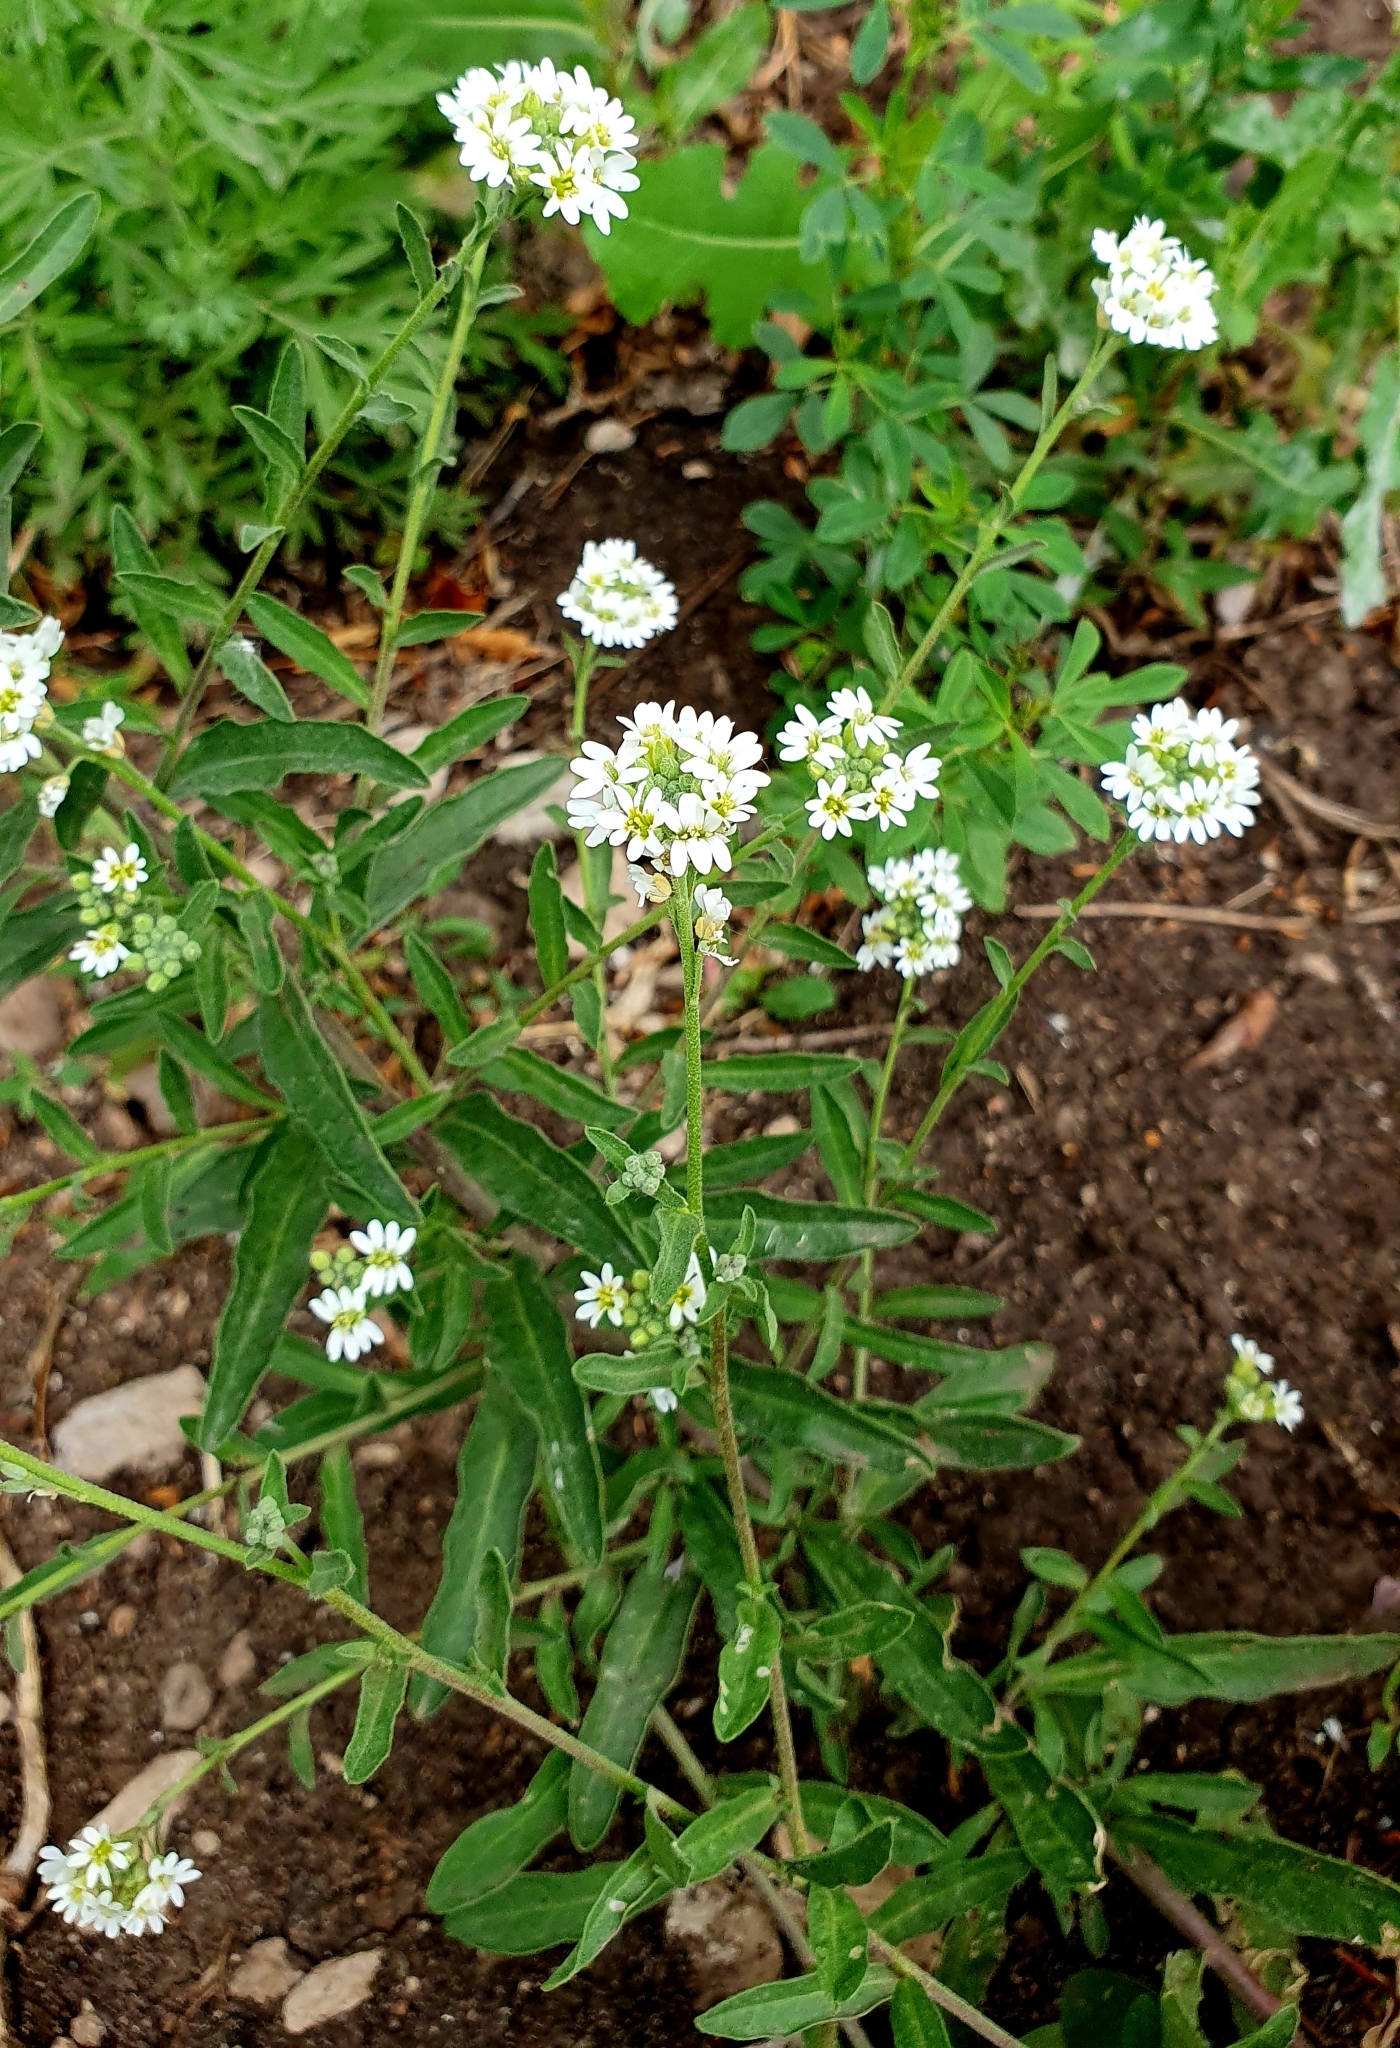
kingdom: Plantae
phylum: Tracheophyta
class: Magnoliopsida
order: Brassicales
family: Brassicaceae
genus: Berteroa
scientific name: Berteroa incana
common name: Hoary alison
